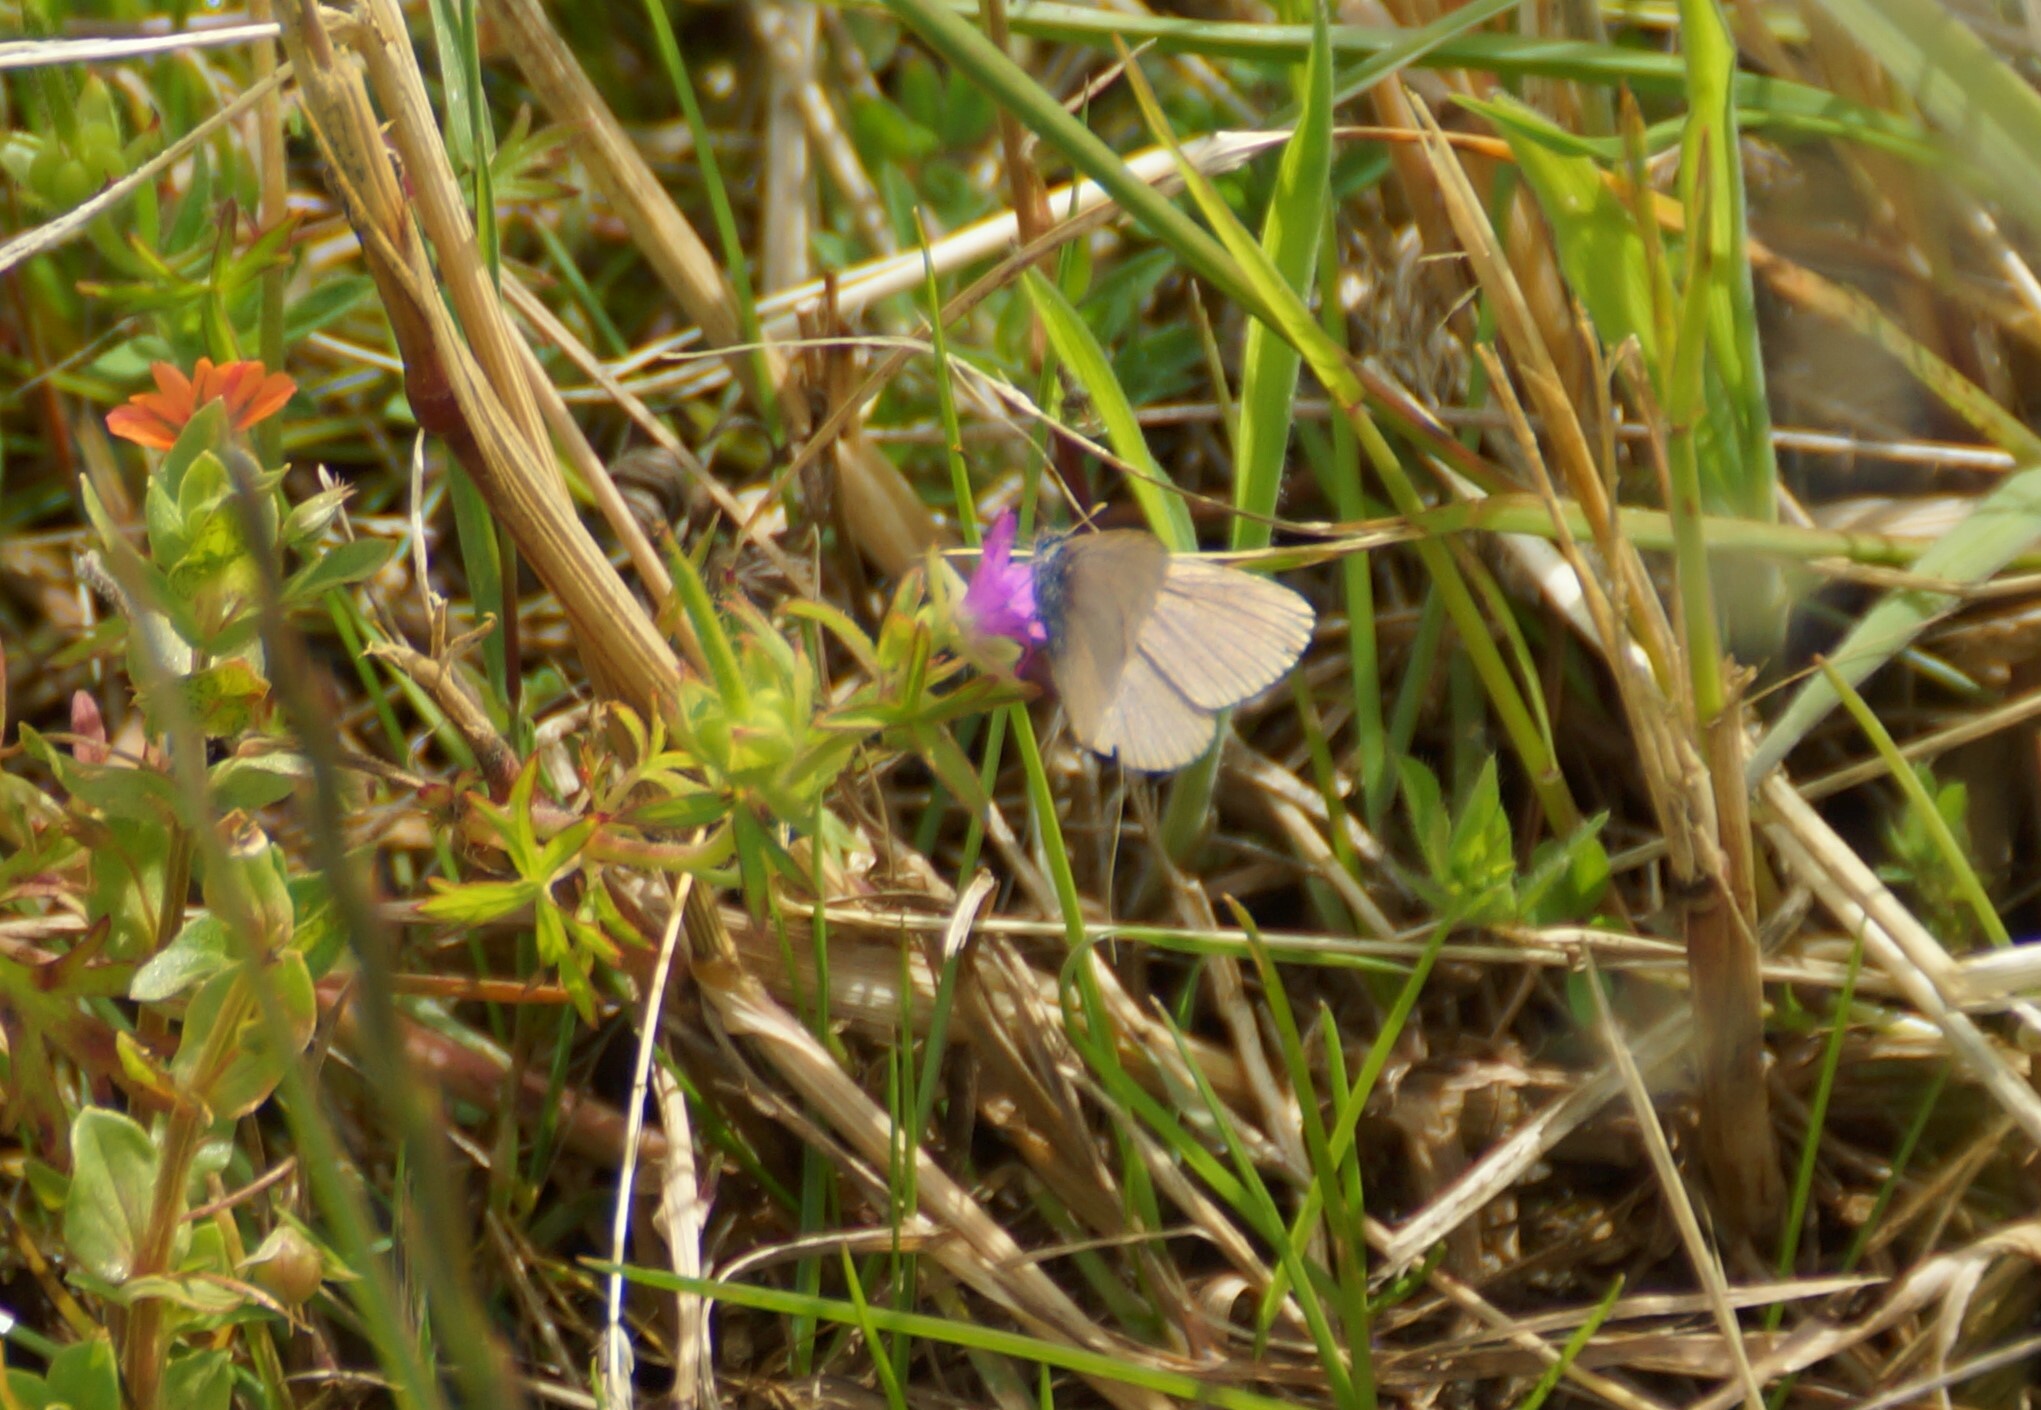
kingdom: Animalia
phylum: Arthropoda
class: Insecta
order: Lepidoptera
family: Lycaenidae
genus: Zizina
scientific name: Zizina otis
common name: Lesser grass blue
